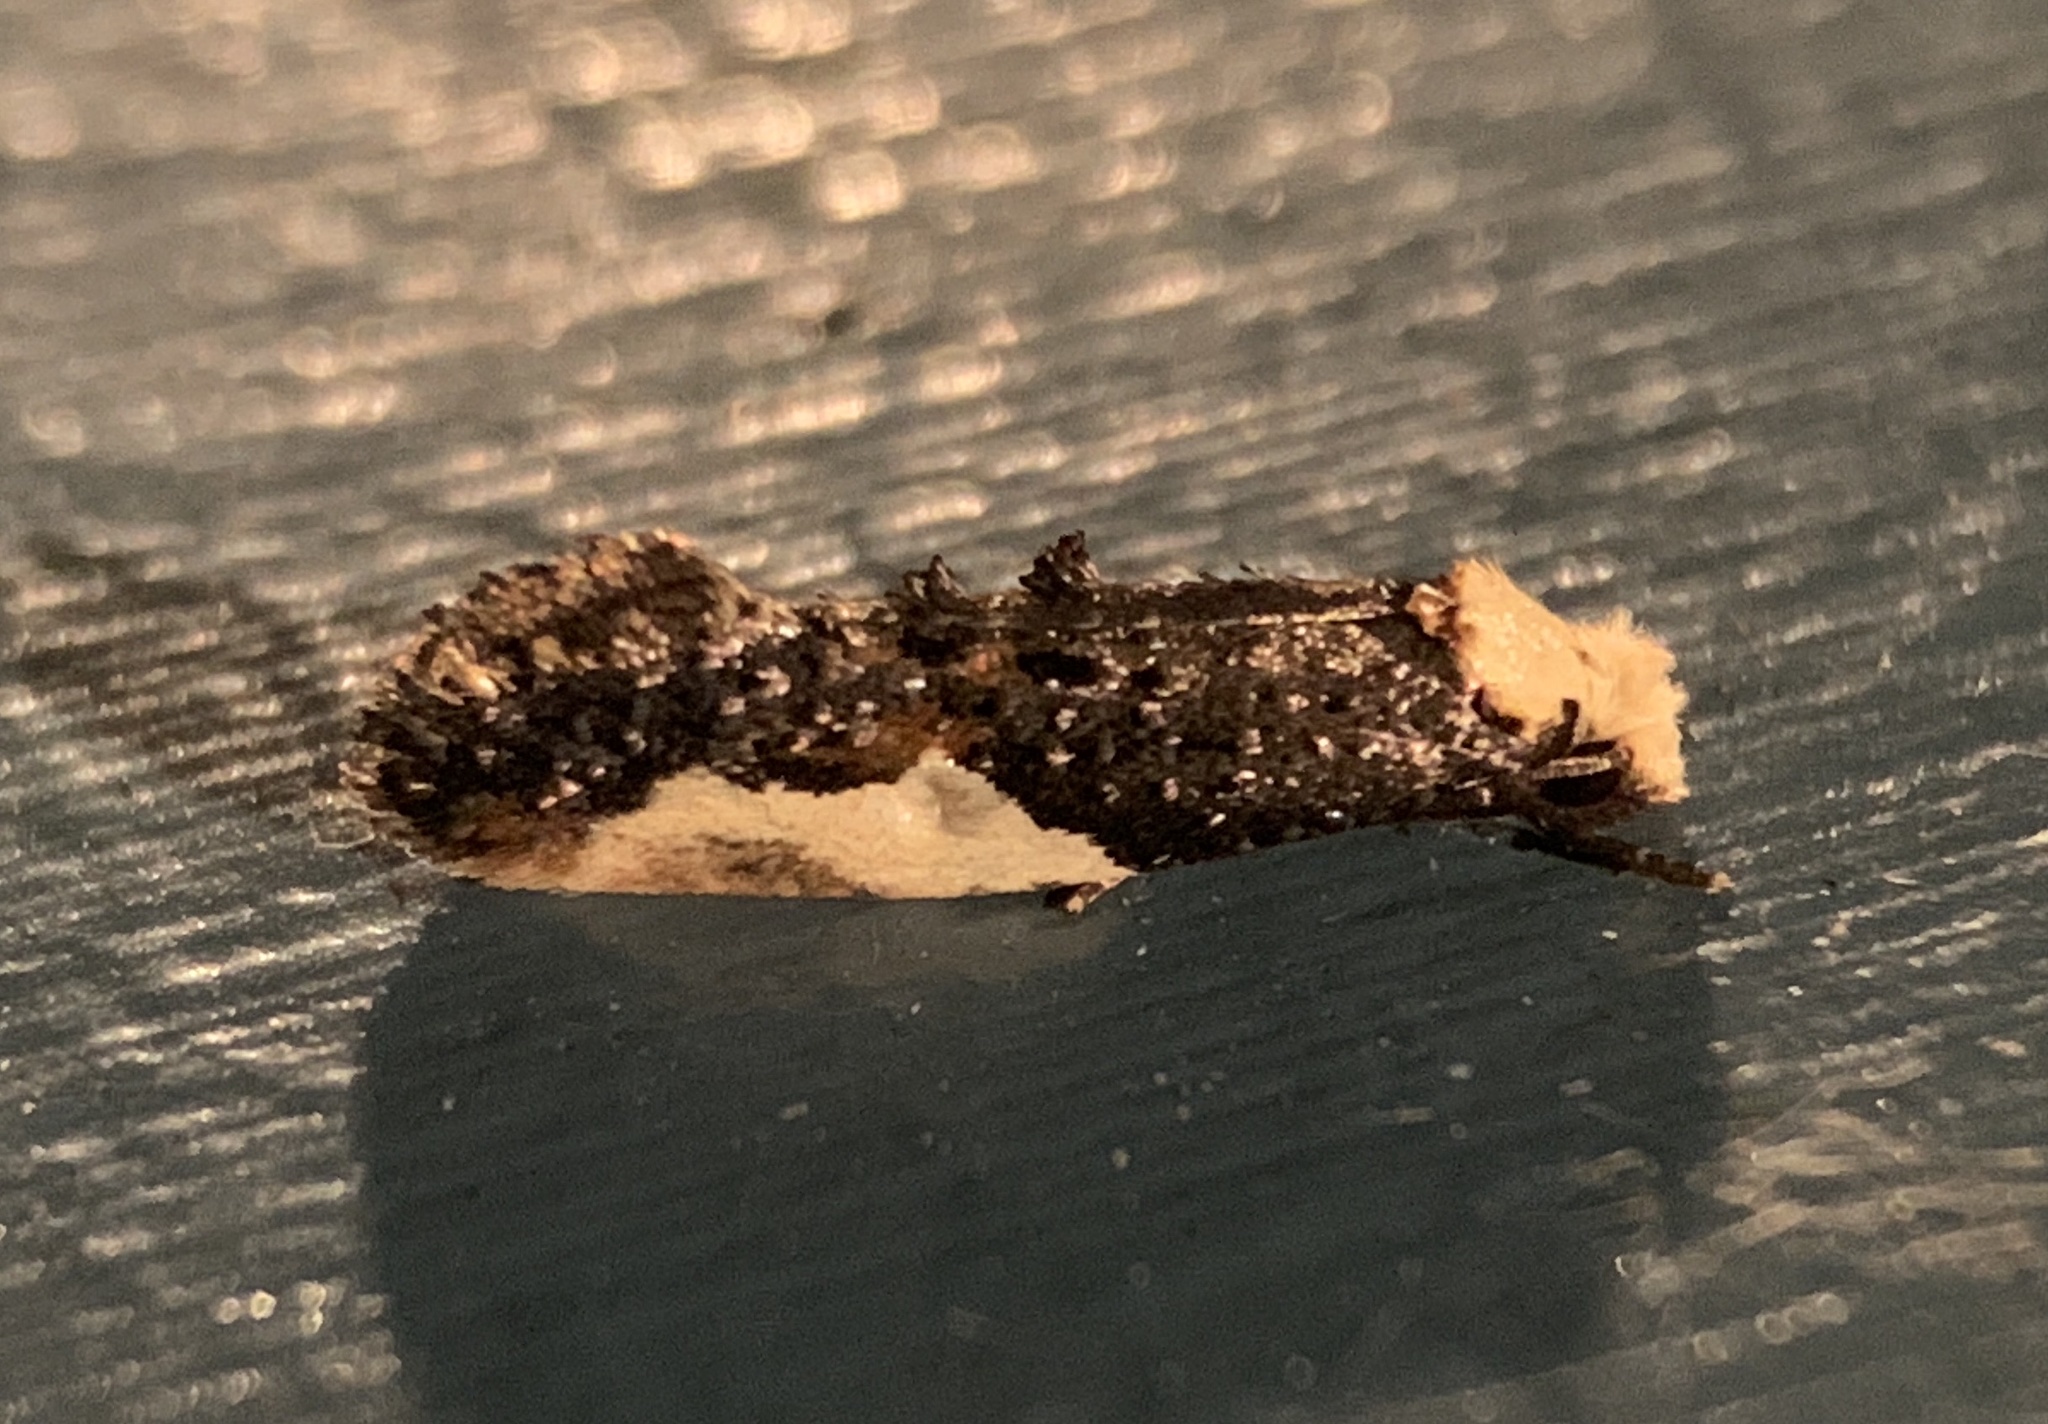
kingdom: Animalia
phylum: Arthropoda
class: Insecta
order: Lepidoptera
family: Tineidae
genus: Monopis
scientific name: Monopis longella
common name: Pavlovski's monopis moth
